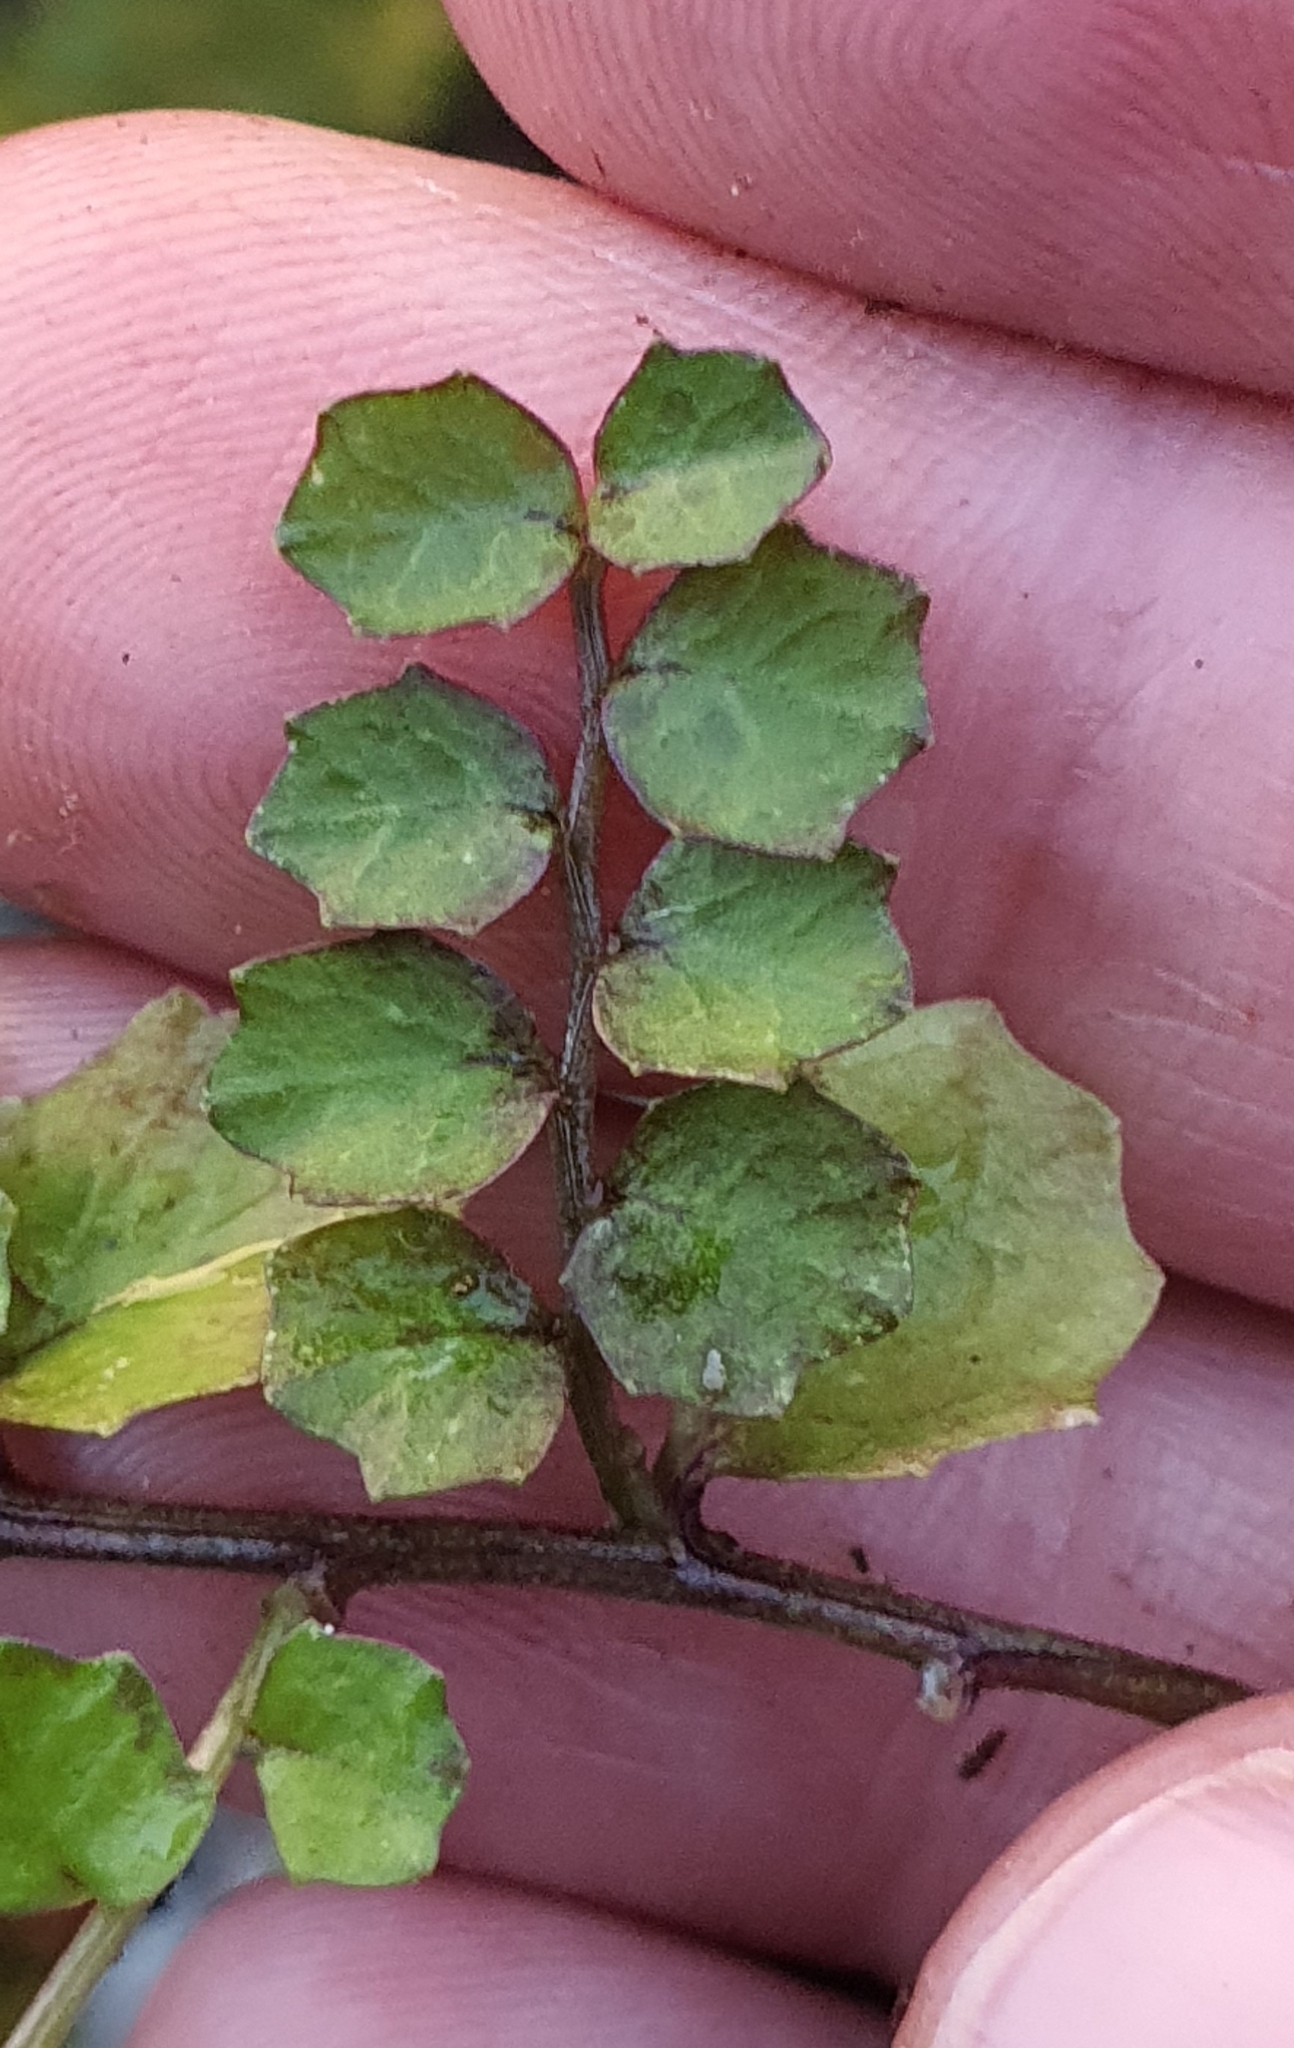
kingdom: Plantae
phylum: Tracheophyta
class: Magnoliopsida
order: Asterales
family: Campanulaceae
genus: Lobelia
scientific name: Lobelia angulata
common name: Lawn lobelia
